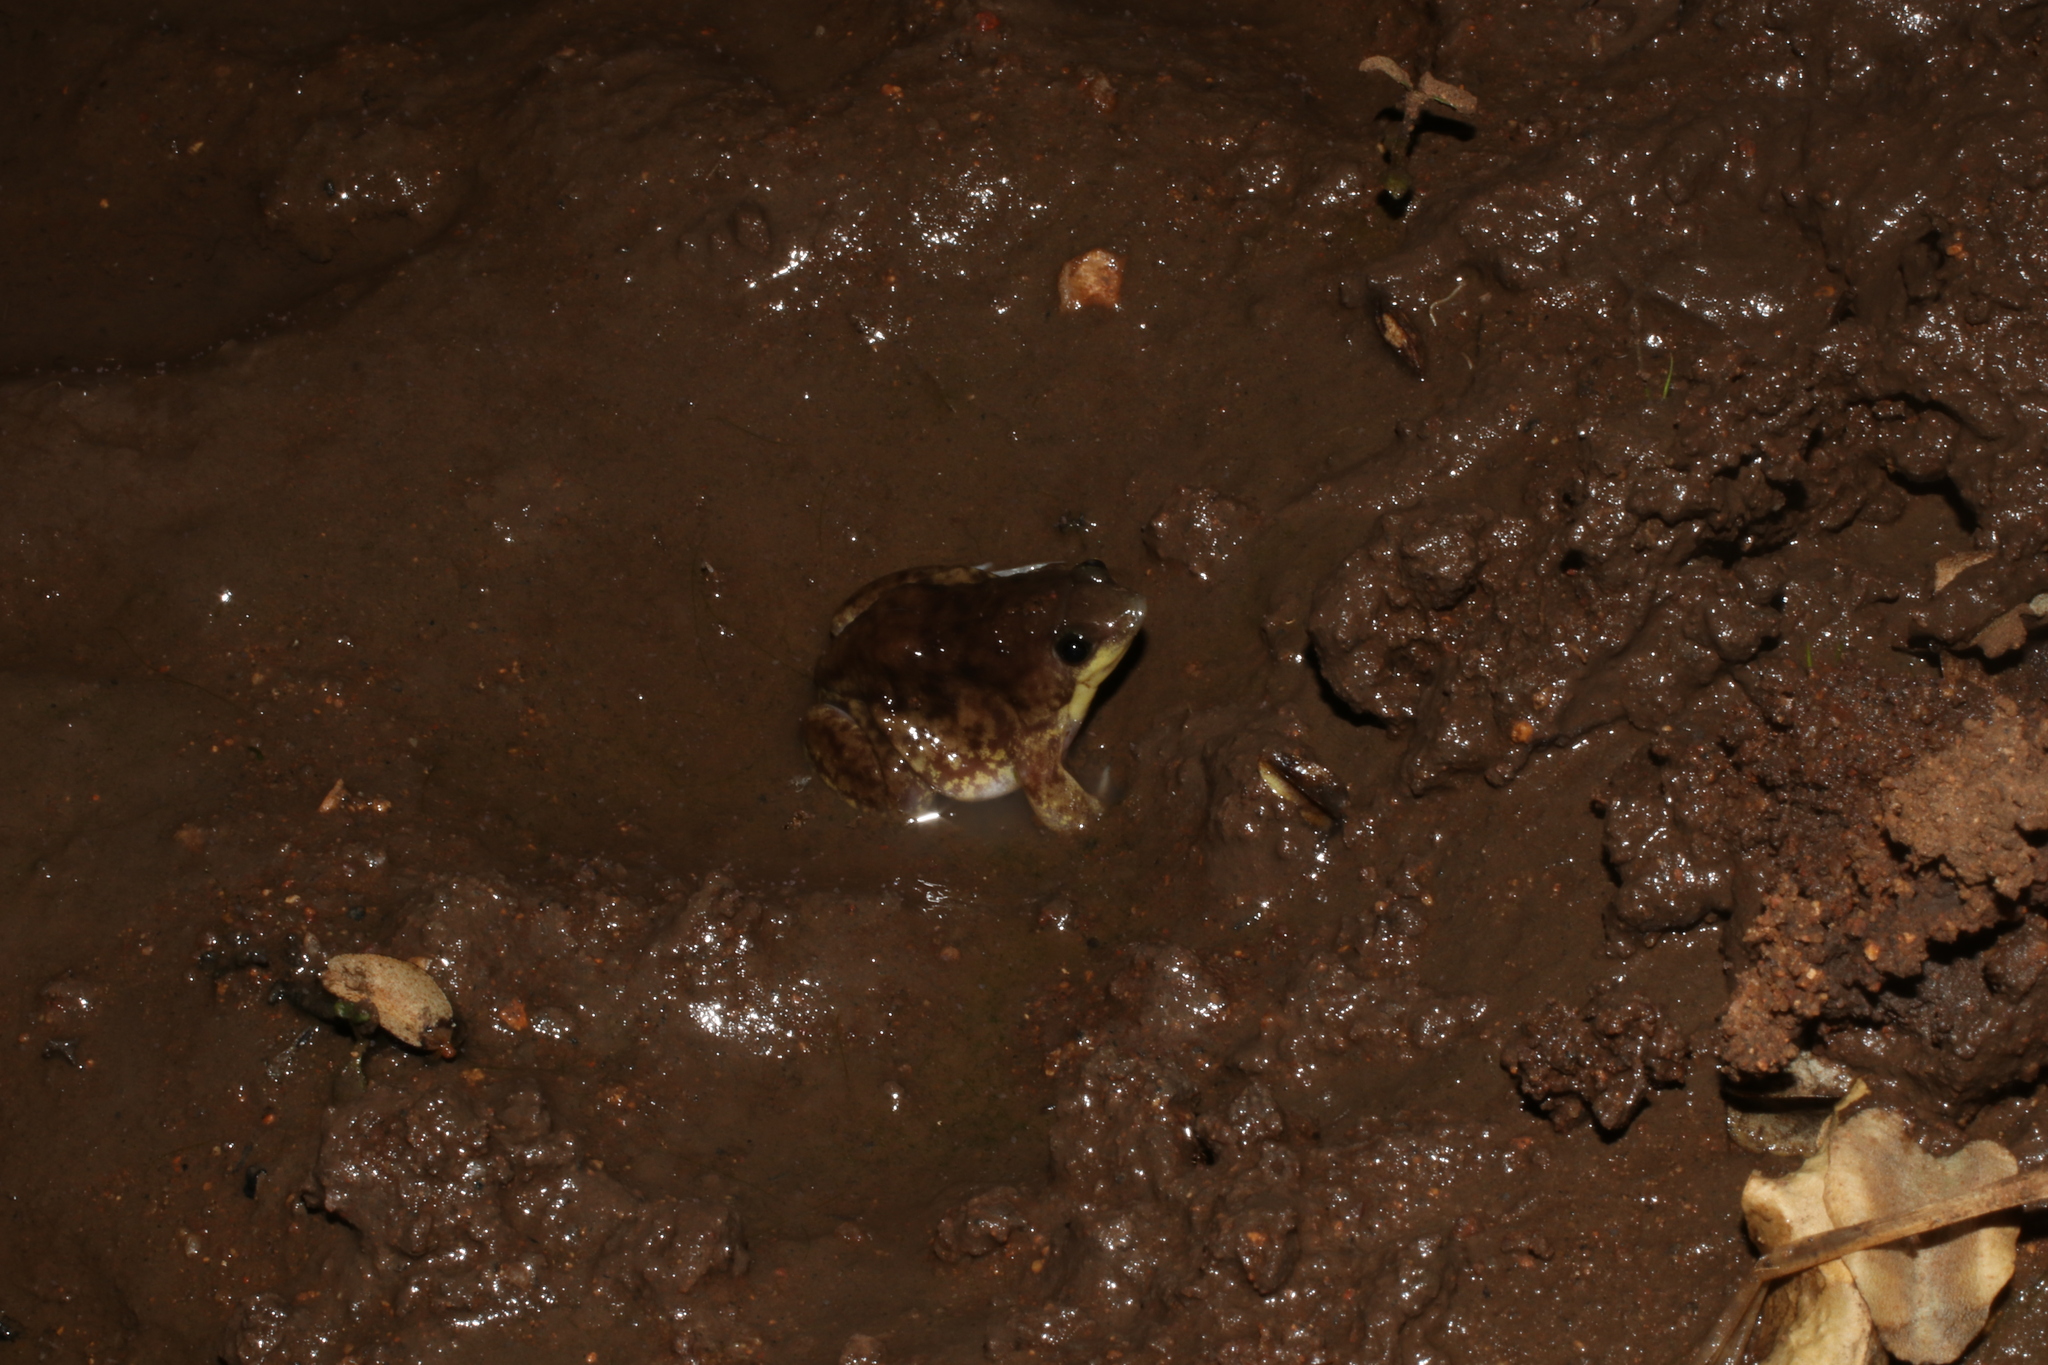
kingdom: Animalia
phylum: Chordata
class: Amphibia
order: Anura
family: Hemisotidae
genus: Hemisus
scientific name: Hemisus marmoratus
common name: Mottled shovel-nosed frog
